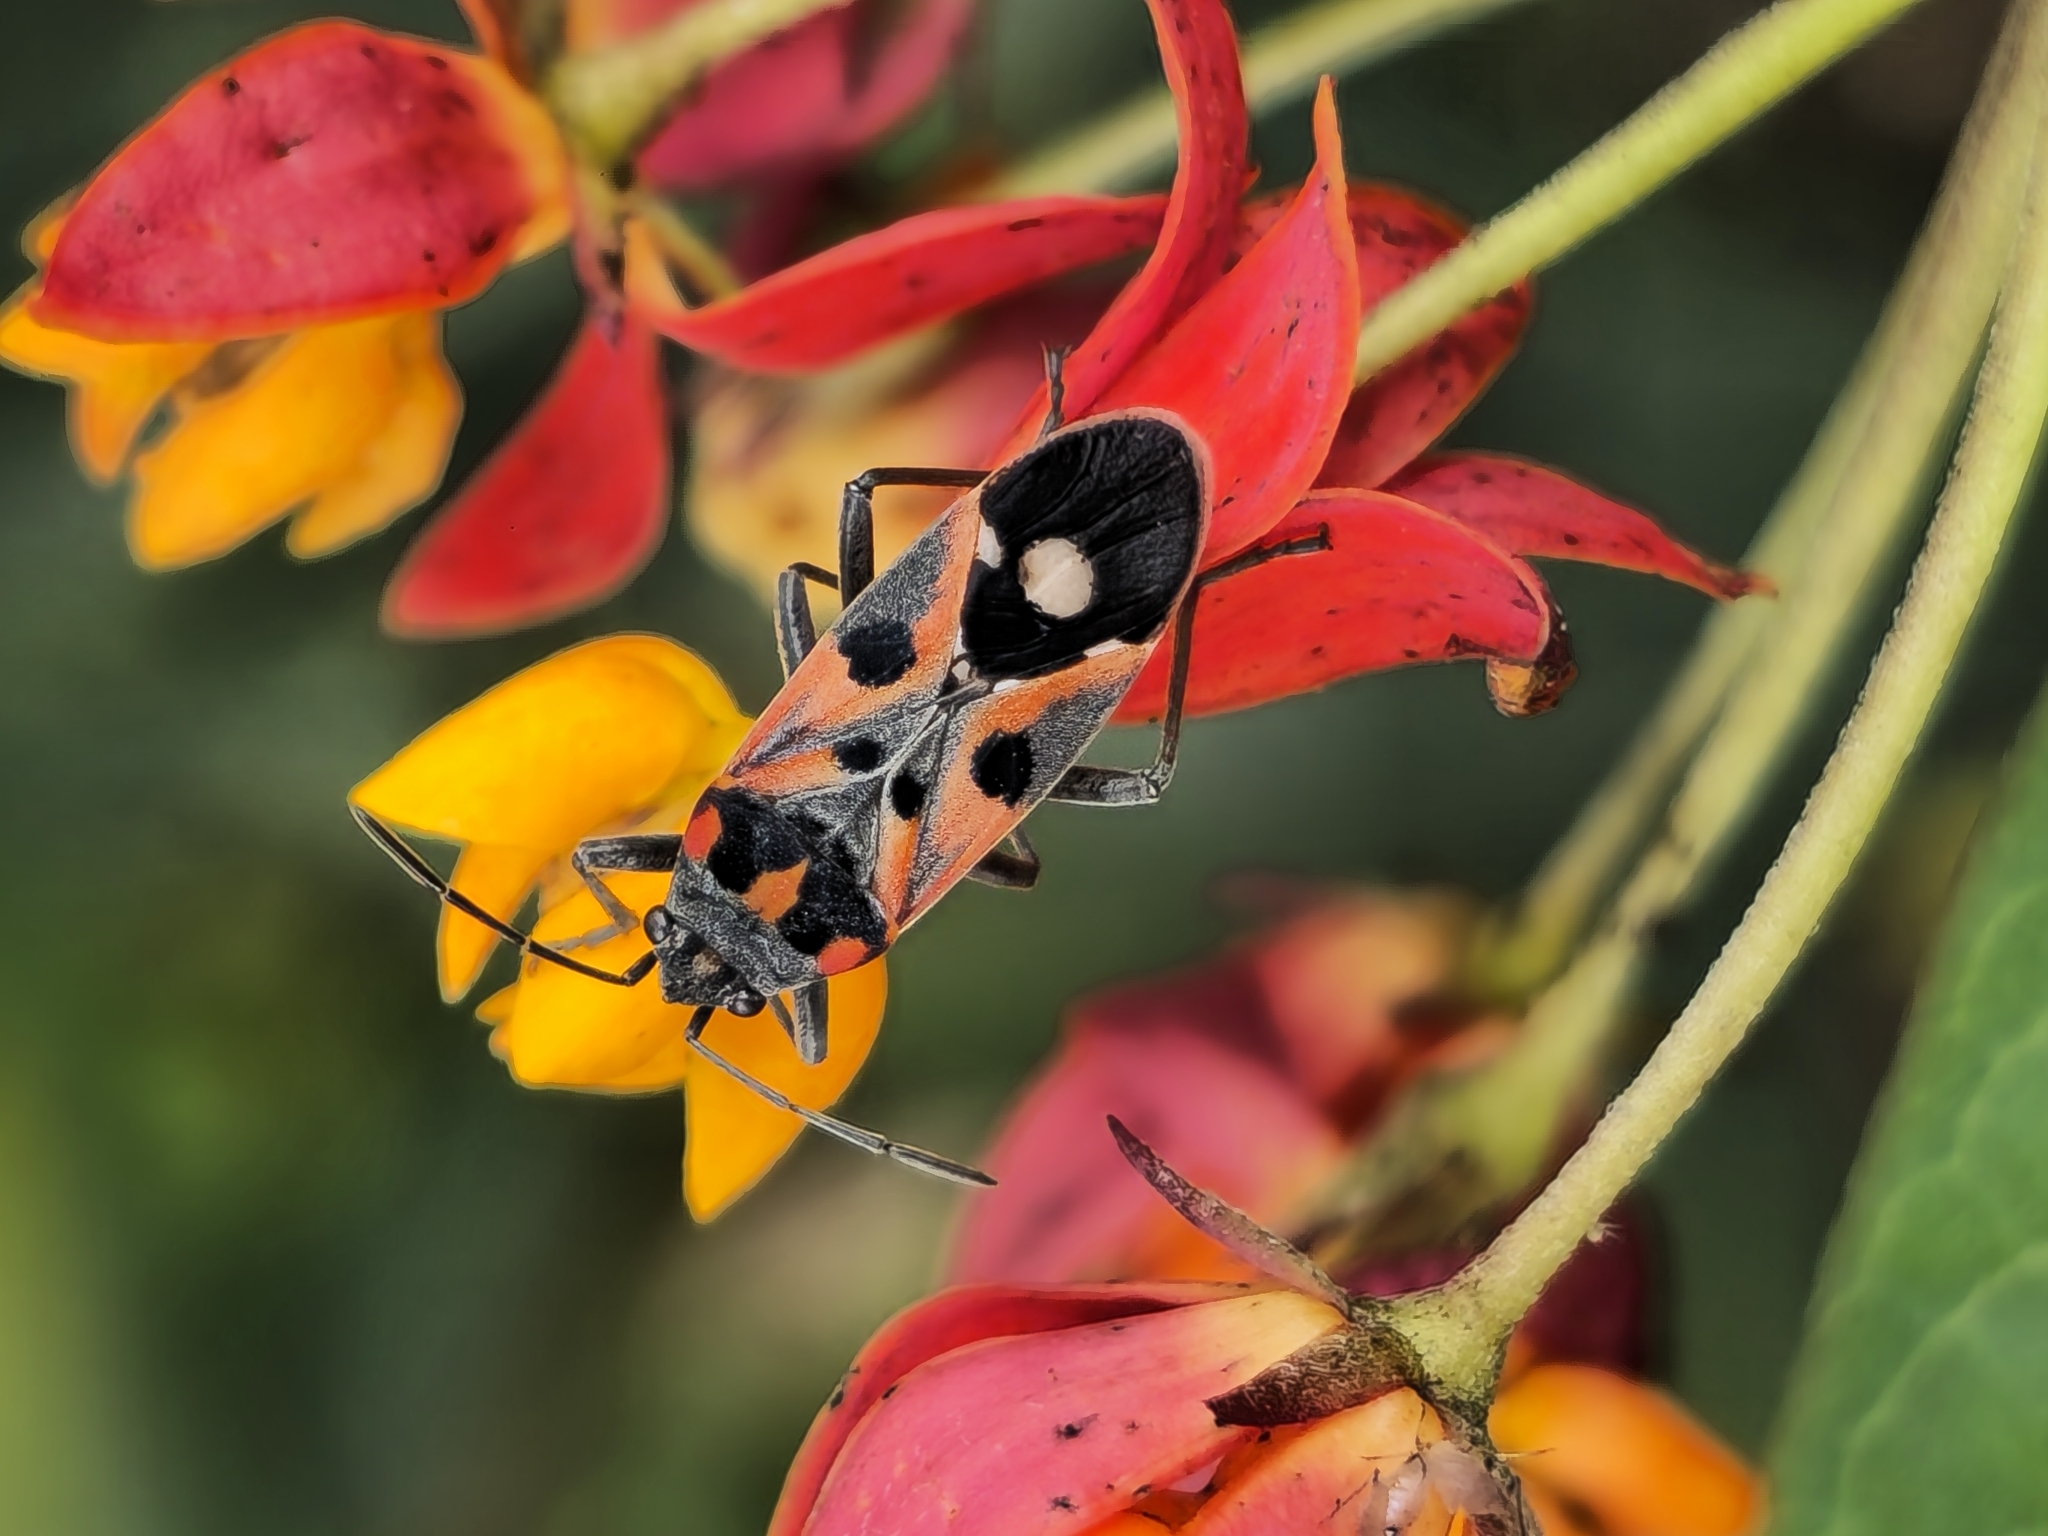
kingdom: Animalia
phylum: Arthropoda
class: Insecta
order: Hemiptera
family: Lygaeidae
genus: Lygaeus
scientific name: Lygaeus alboornatus
